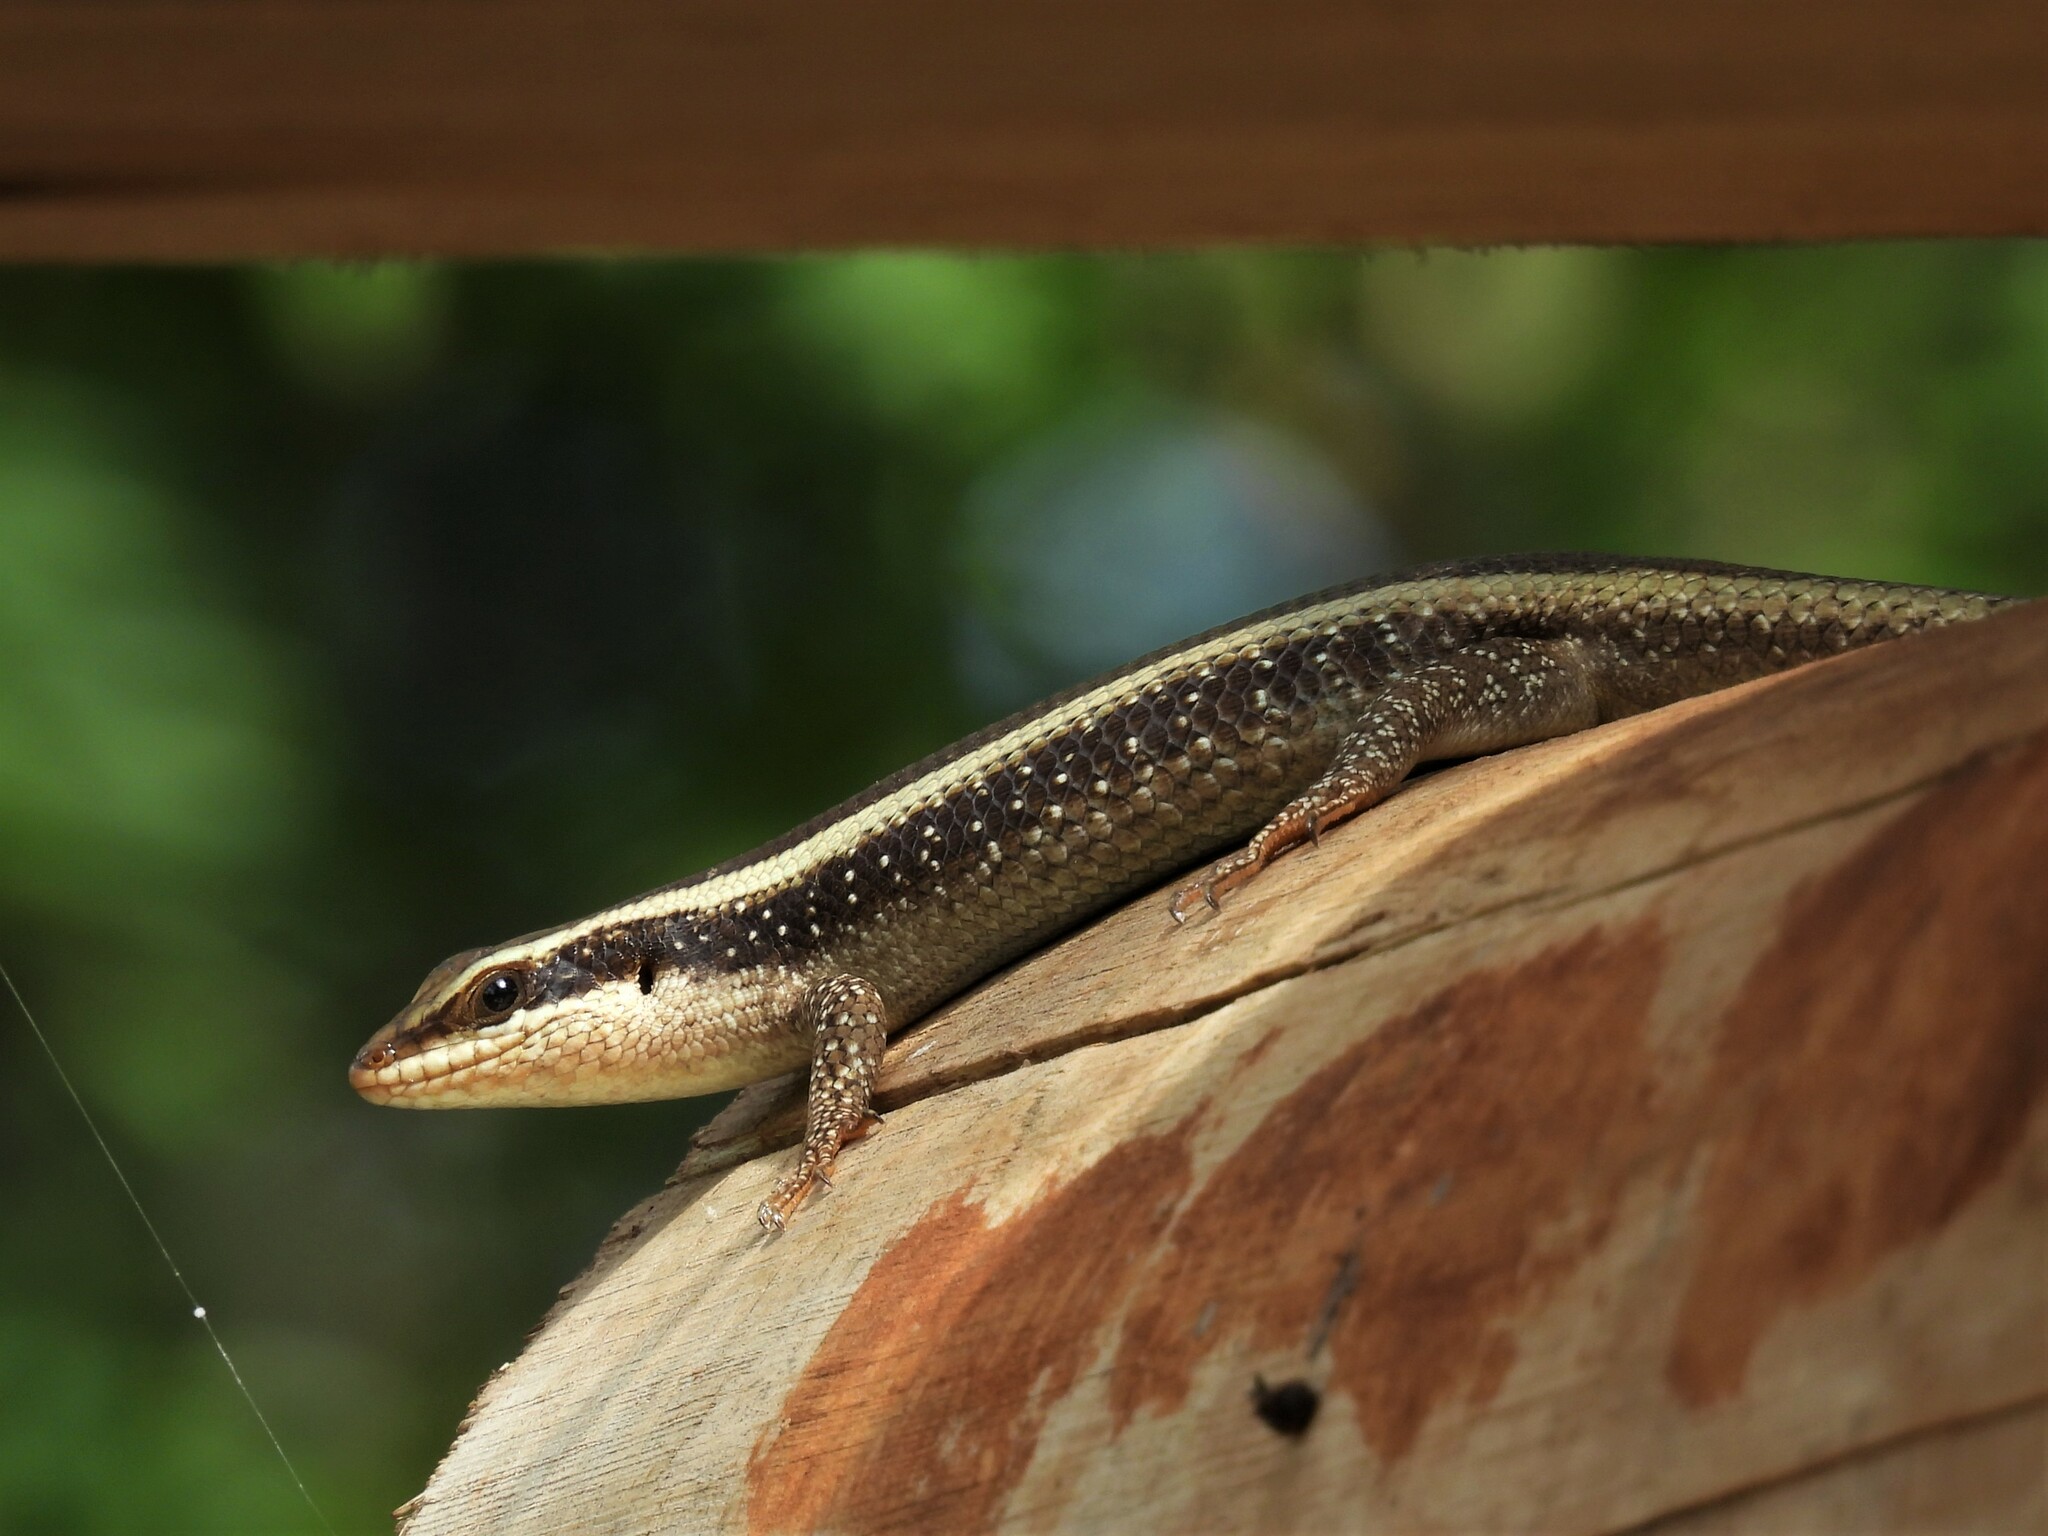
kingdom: Animalia
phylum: Chordata
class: Squamata
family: Scincidae
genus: Trachylepis
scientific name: Trachylepis striata
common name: African striped mabuya
